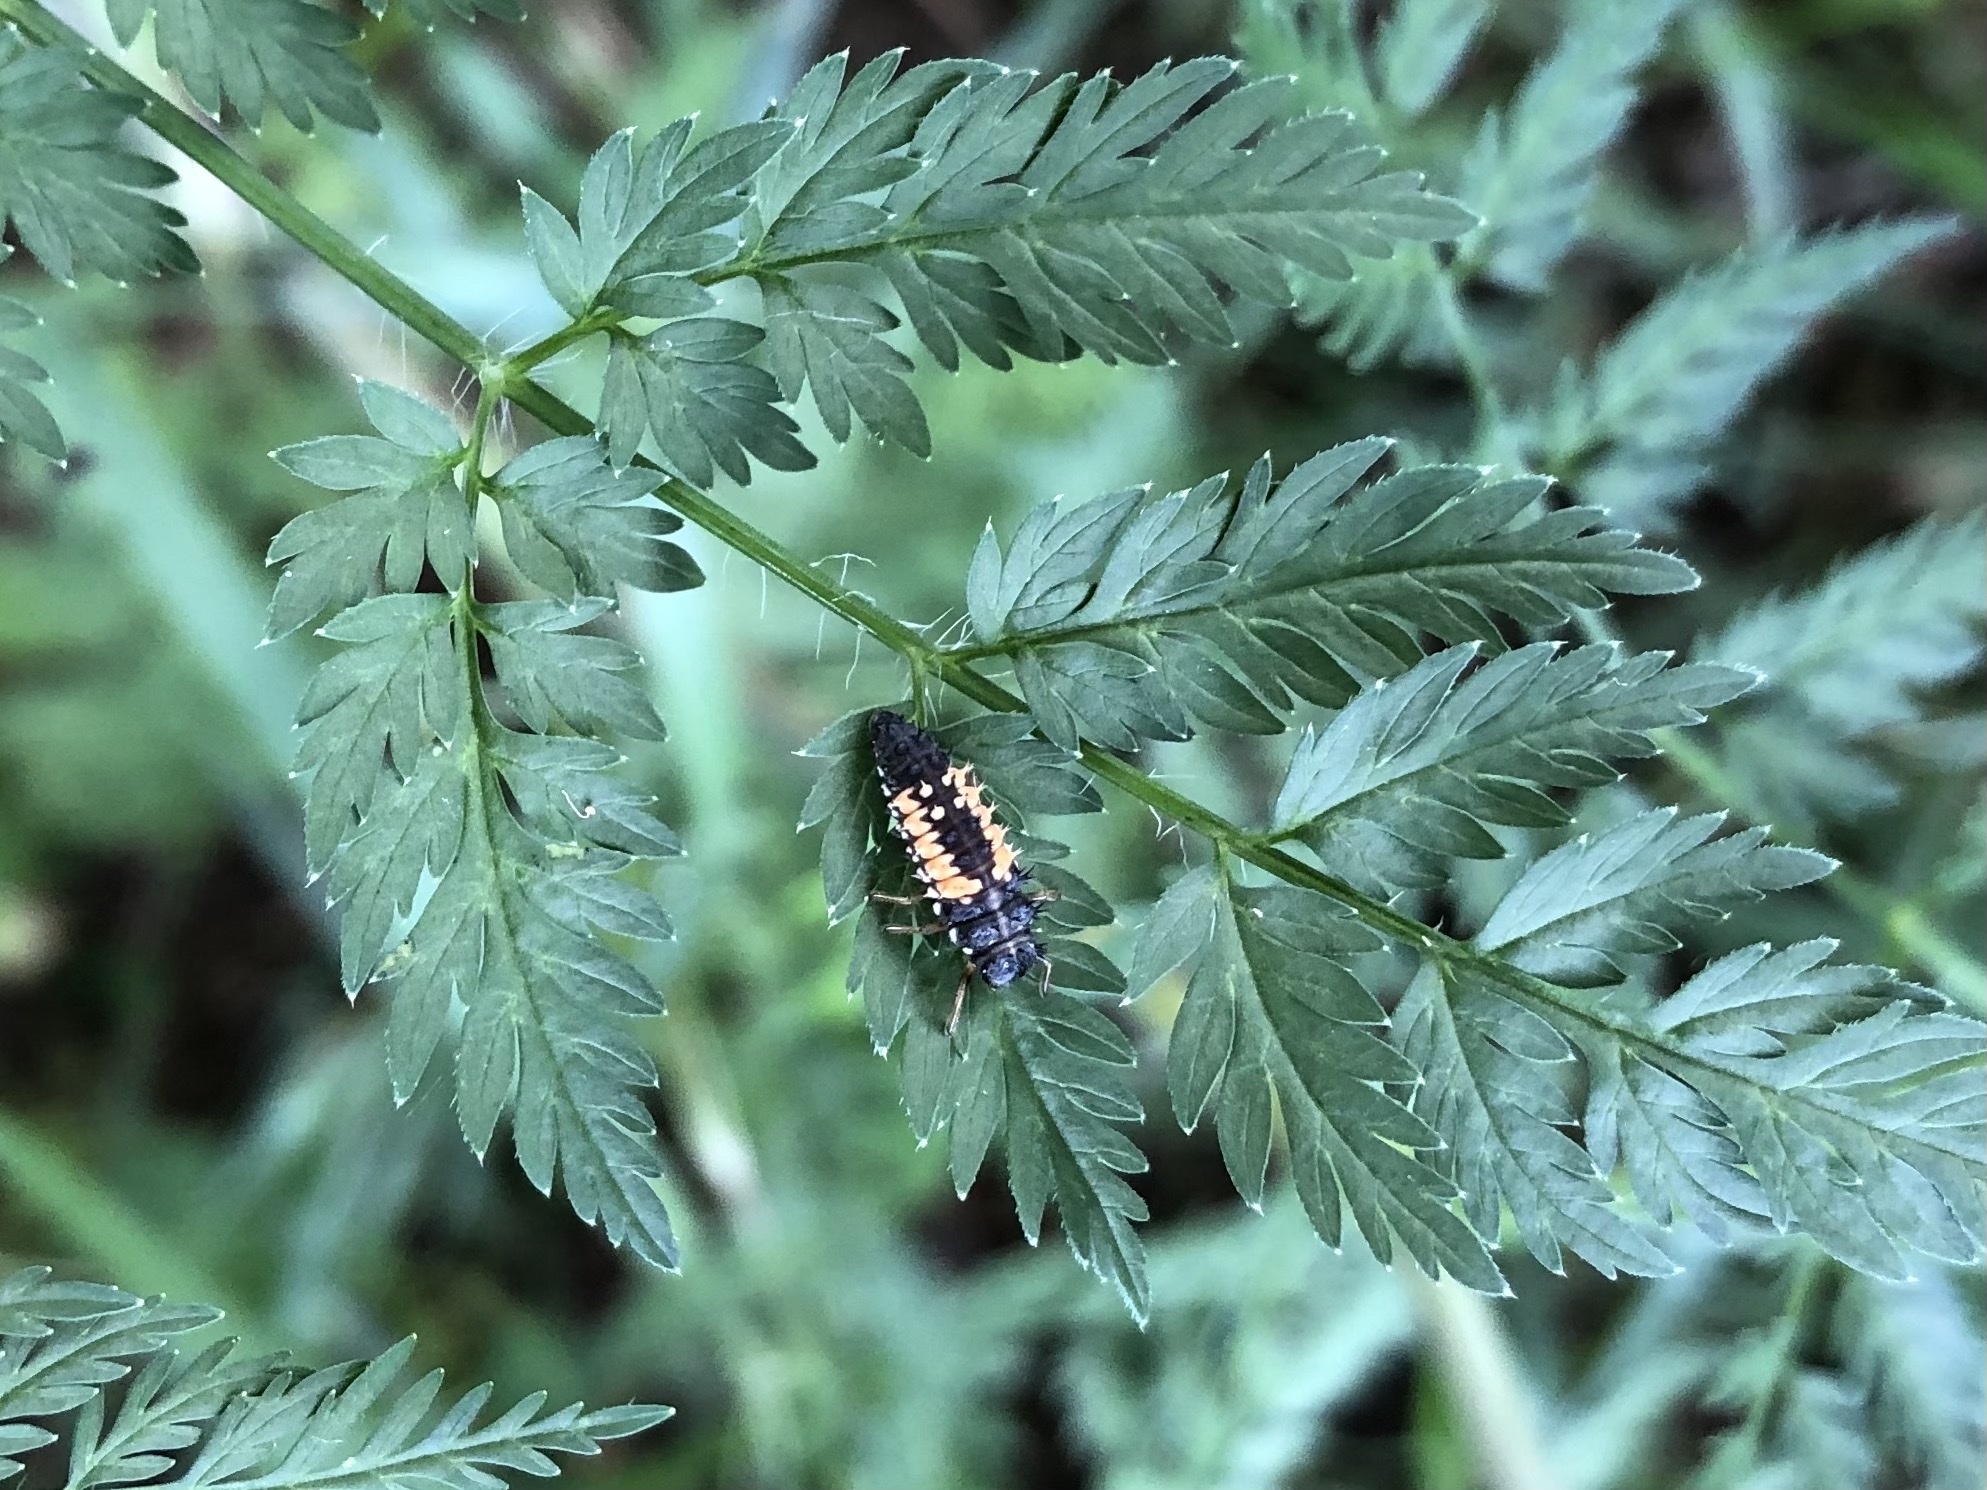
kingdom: Animalia
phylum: Arthropoda
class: Insecta
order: Coleoptera
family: Coccinellidae
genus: Harmonia
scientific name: Harmonia axyridis
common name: Harlequin ladybird
